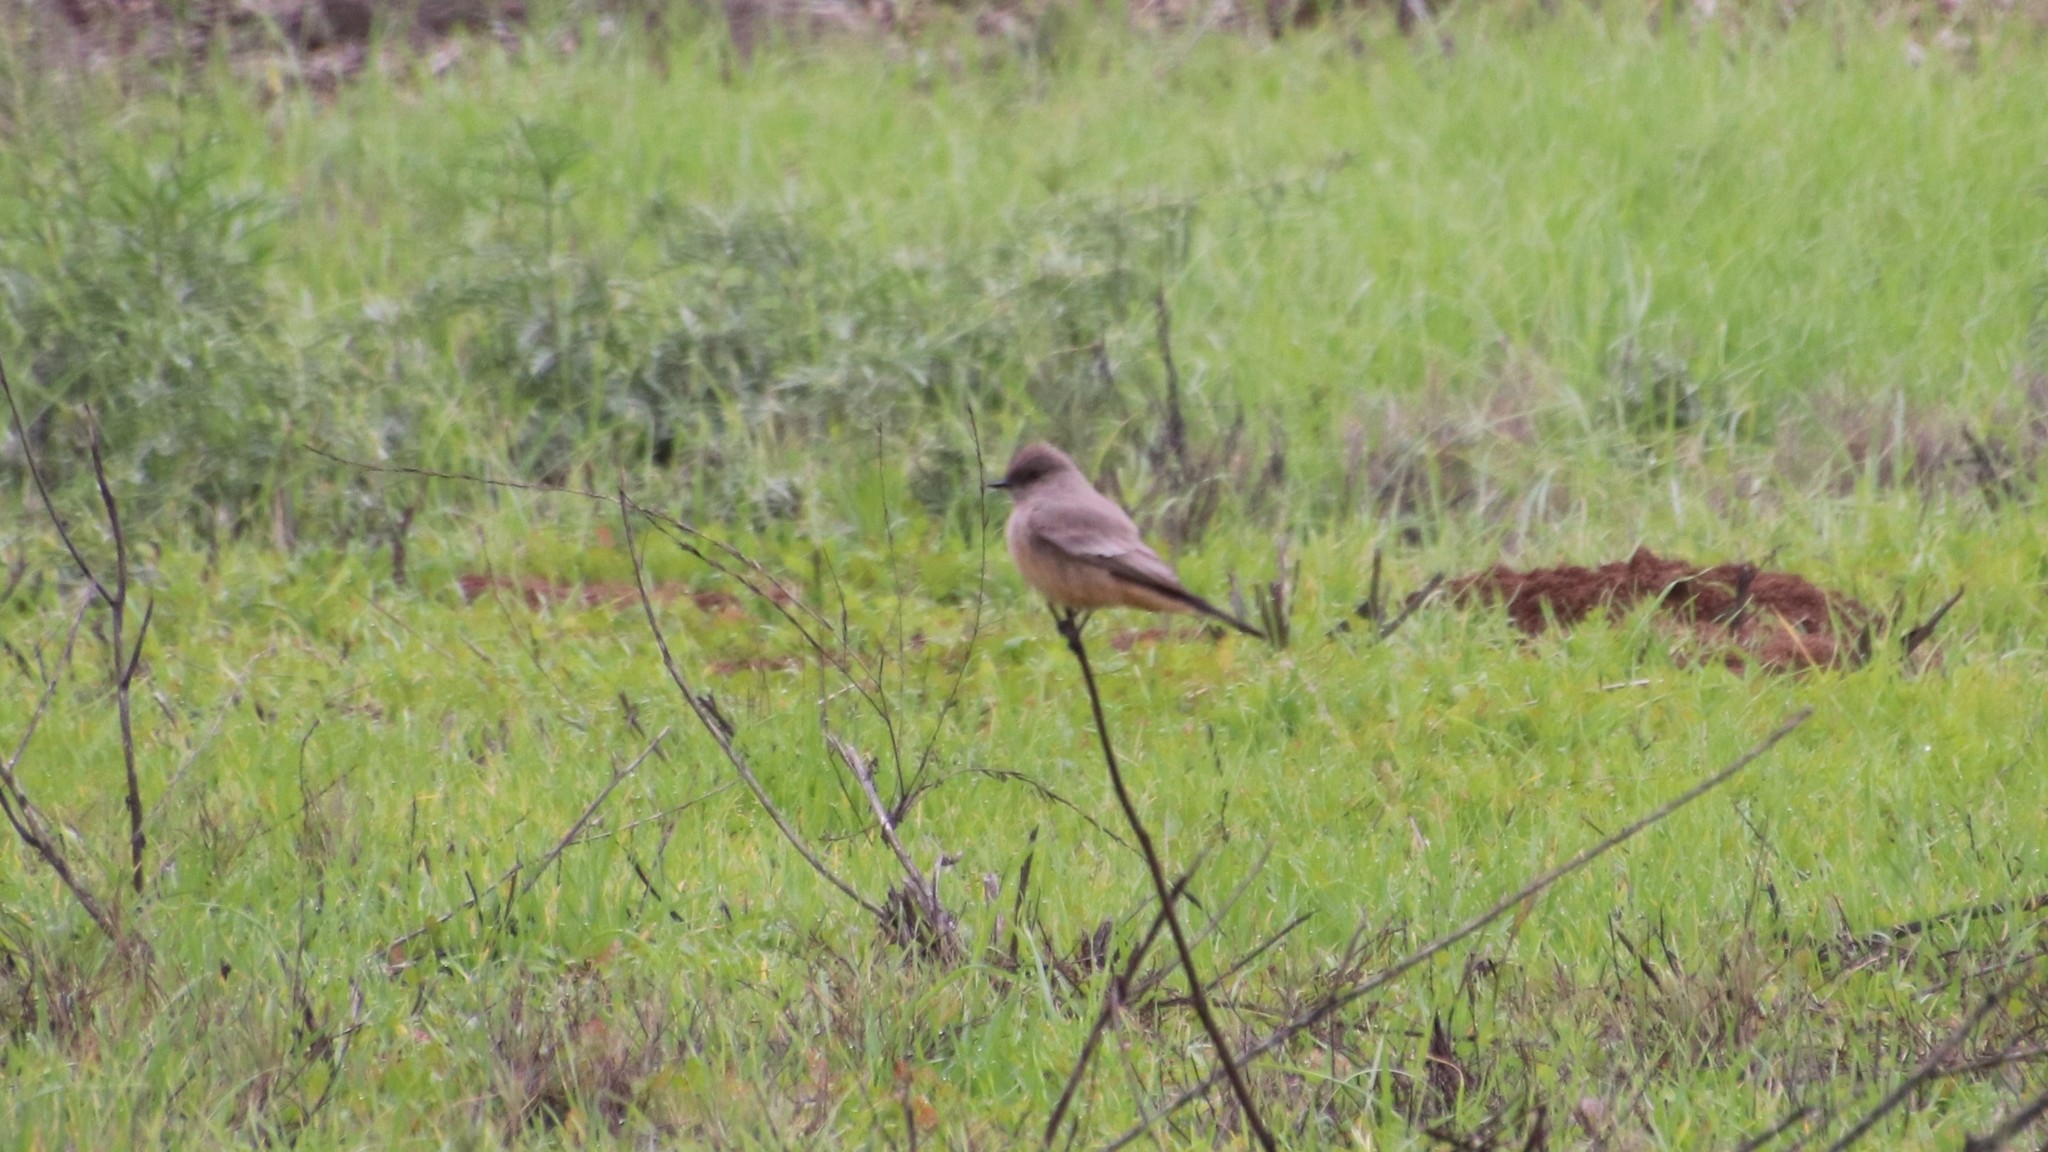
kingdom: Animalia
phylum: Chordata
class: Aves
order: Passeriformes
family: Tyrannidae
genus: Sayornis
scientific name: Sayornis saya
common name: Say's phoebe
